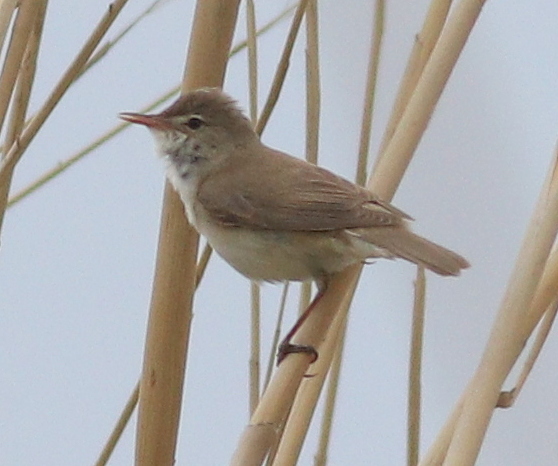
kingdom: Animalia
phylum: Chordata
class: Aves
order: Passeriformes
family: Acrocephalidae
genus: Acrocephalus
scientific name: Acrocephalus scirpaceus
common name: Eurasian reed warbler
